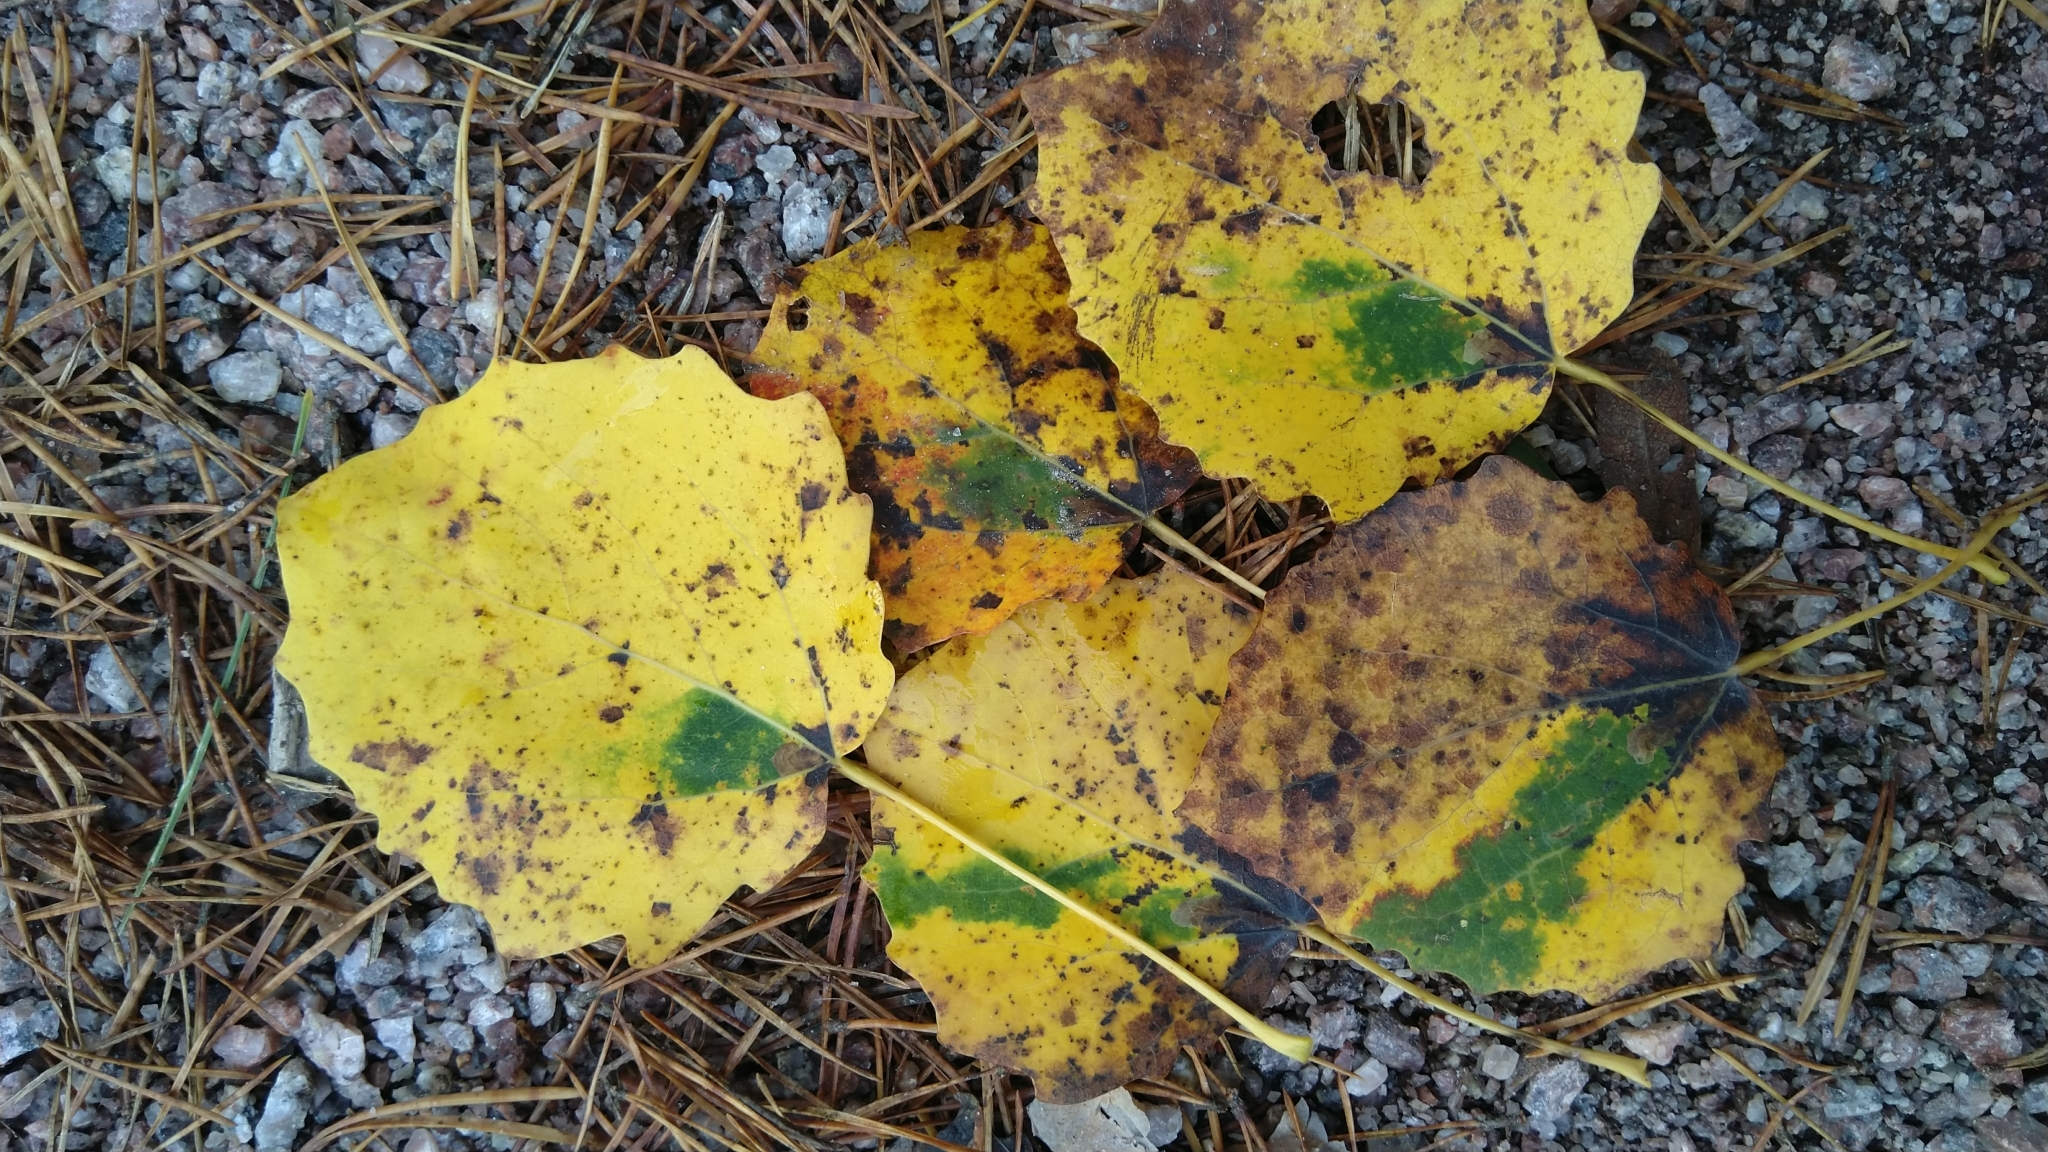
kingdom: Animalia
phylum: Arthropoda
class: Insecta
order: Lepidoptera
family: Nepticulidae
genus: Ectoedemia
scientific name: Ectoedemia argyropeza
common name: Virgin pigmy
